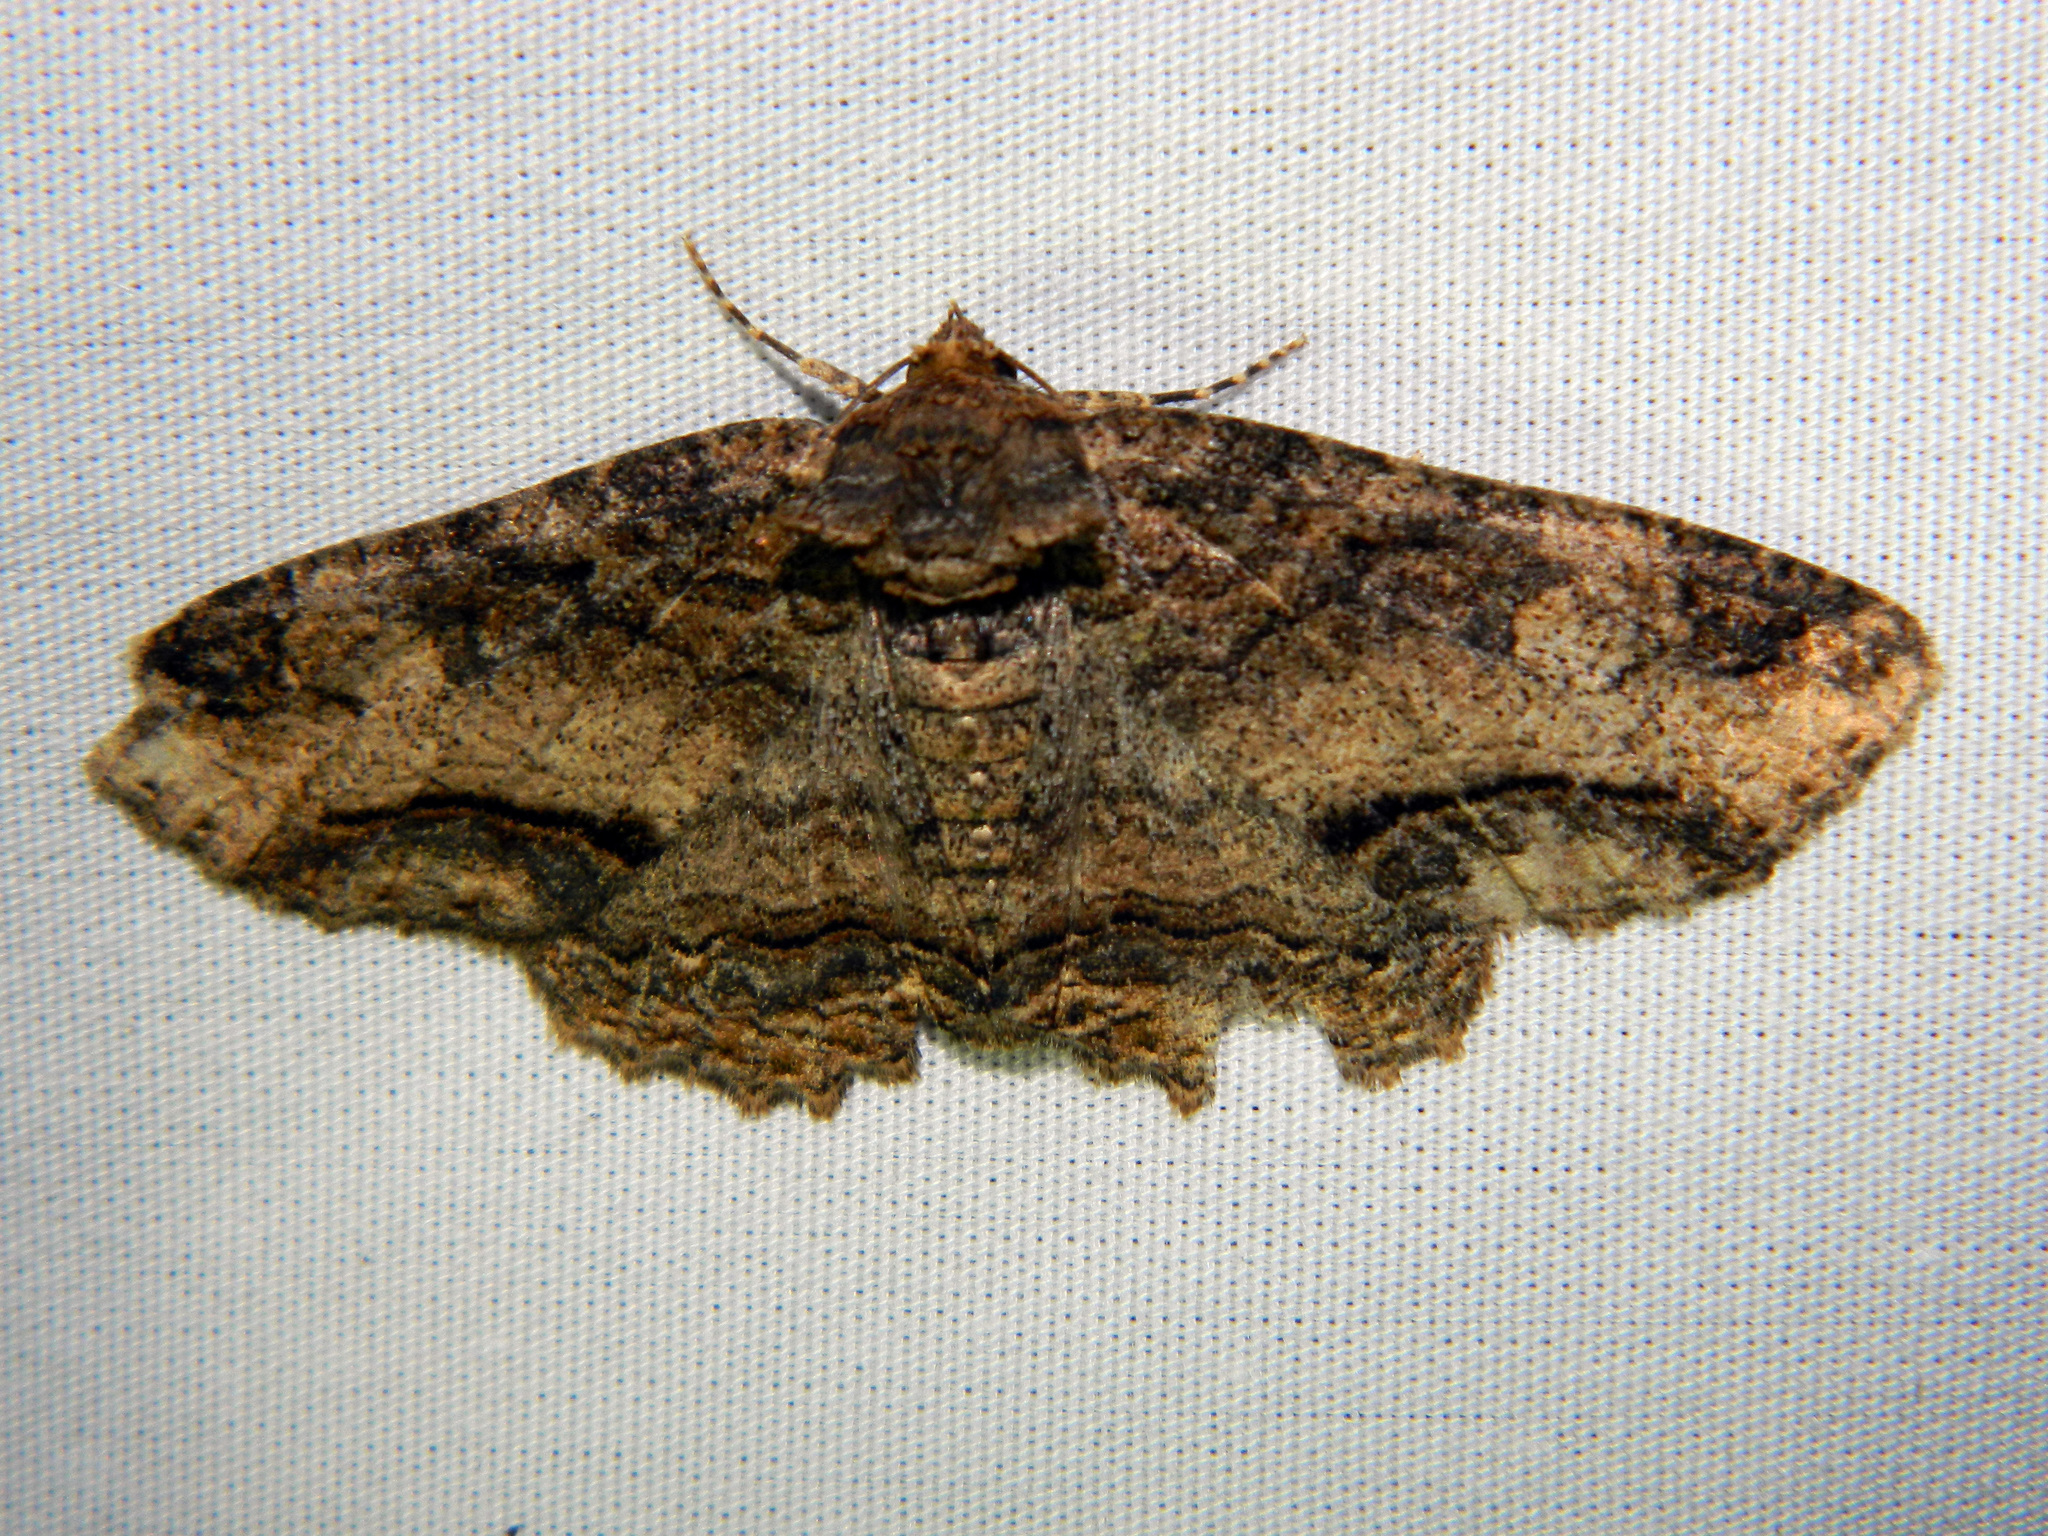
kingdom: Animalia
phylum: Arthropoda
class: Insecta
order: Lepidoptera
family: Erebidae
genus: Zale
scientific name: Zale minerea
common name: Colorful zale moth
